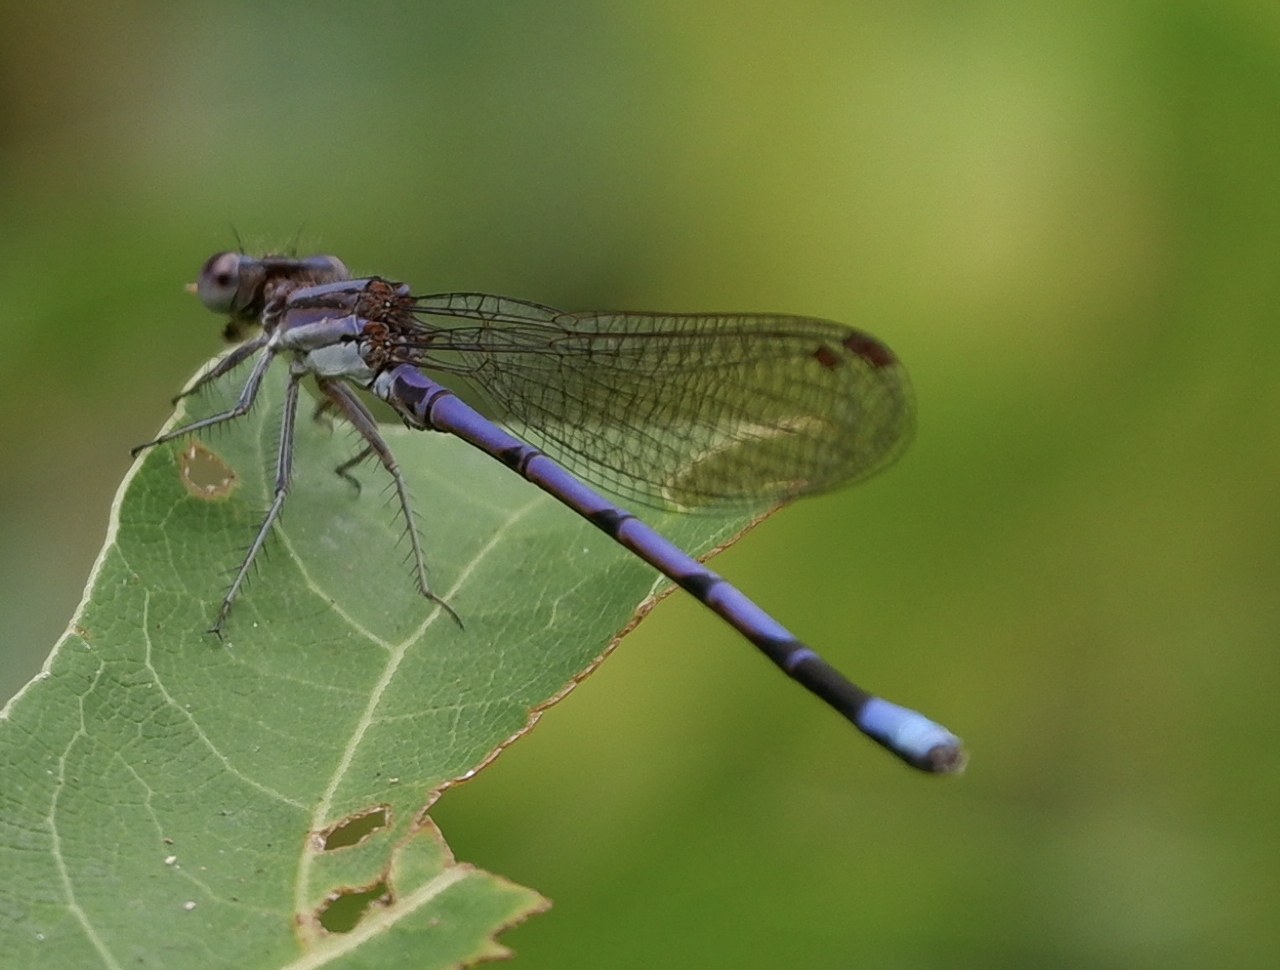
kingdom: Animalia
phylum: Arthropoda
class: Insecta
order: Odonata
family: Coenagrionidae
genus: Argia
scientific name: Argia fumipennis
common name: Variable dancer
